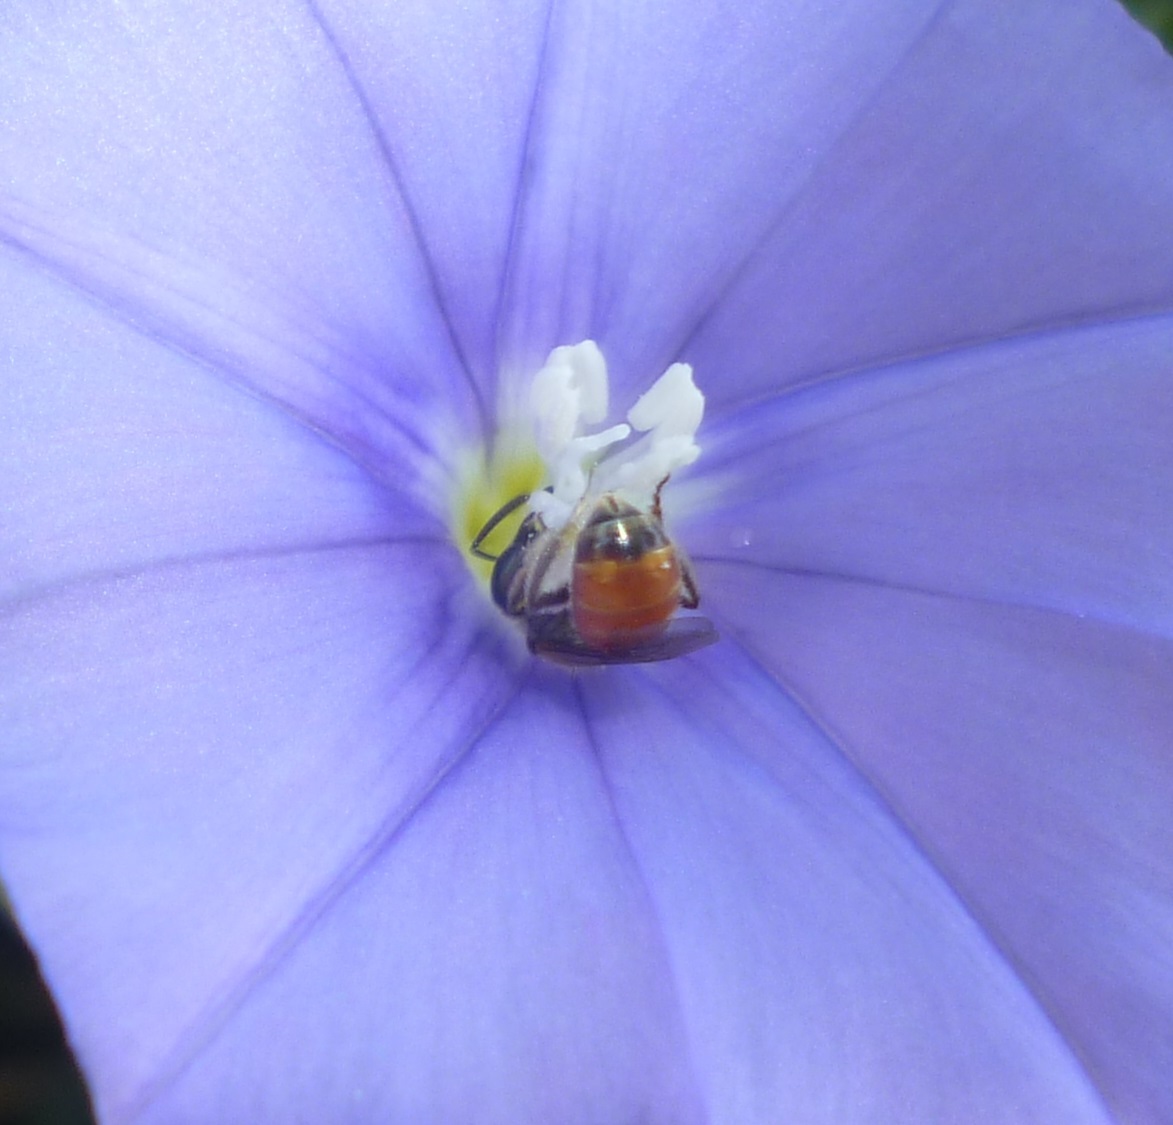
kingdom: Animalia
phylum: Arthropoda
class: Insecta
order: Hymenoptera
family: Halictidae
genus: Lasioglossum
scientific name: Lasioglossum pseudosphecodimorphum
